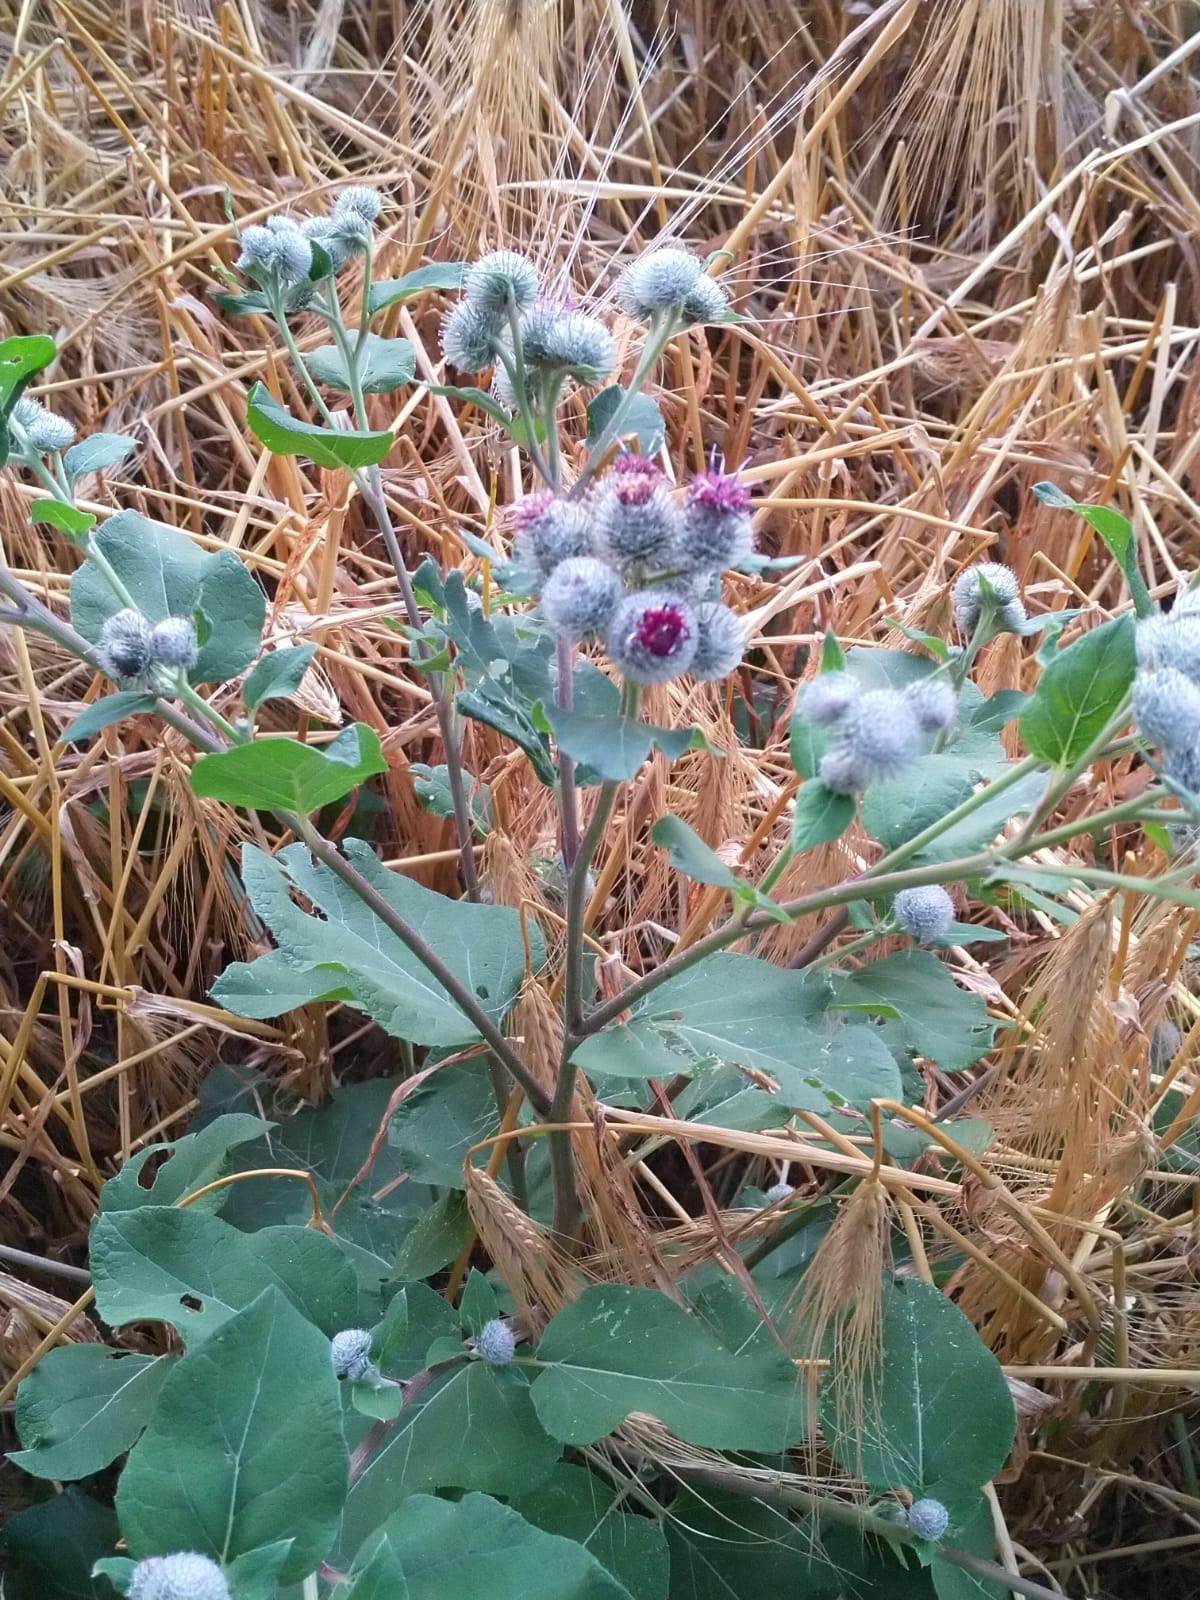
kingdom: Plantae
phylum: Tracheophyta
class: Magnoliopsida
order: Asterales
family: Asteraceae
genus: Arctium
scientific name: Arctium tomentosum
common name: Woolly burdock
